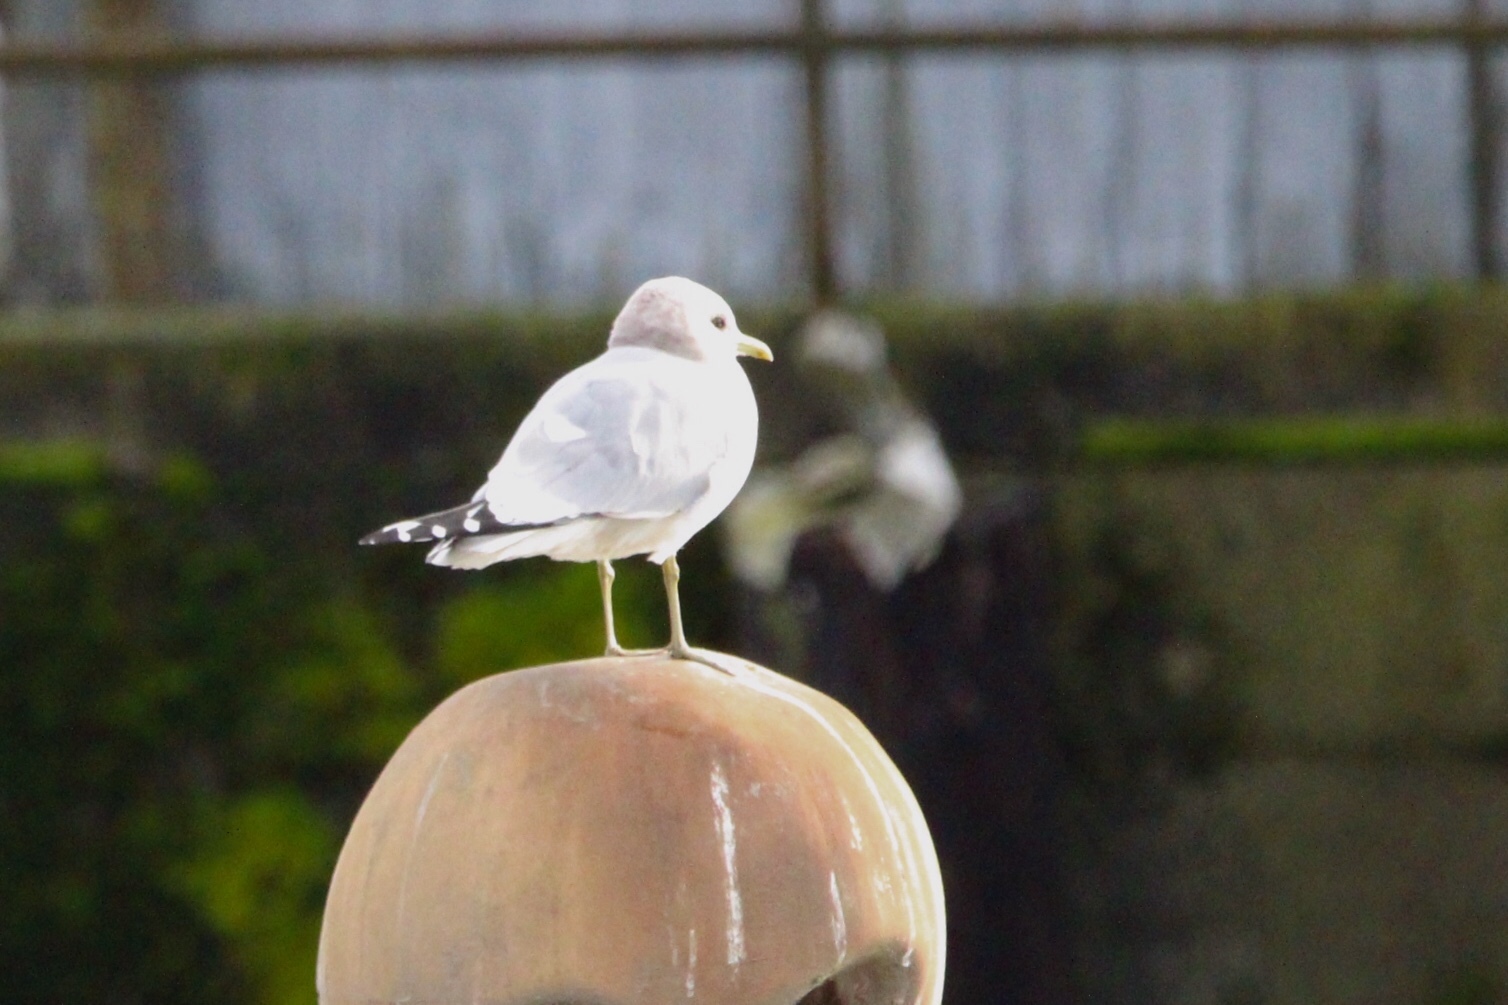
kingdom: Animalia
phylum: Chordata
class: Aves
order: Charadriiformes
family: Laridae
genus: Larus
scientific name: Larus brachyrhynchus
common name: Short-billed gull
